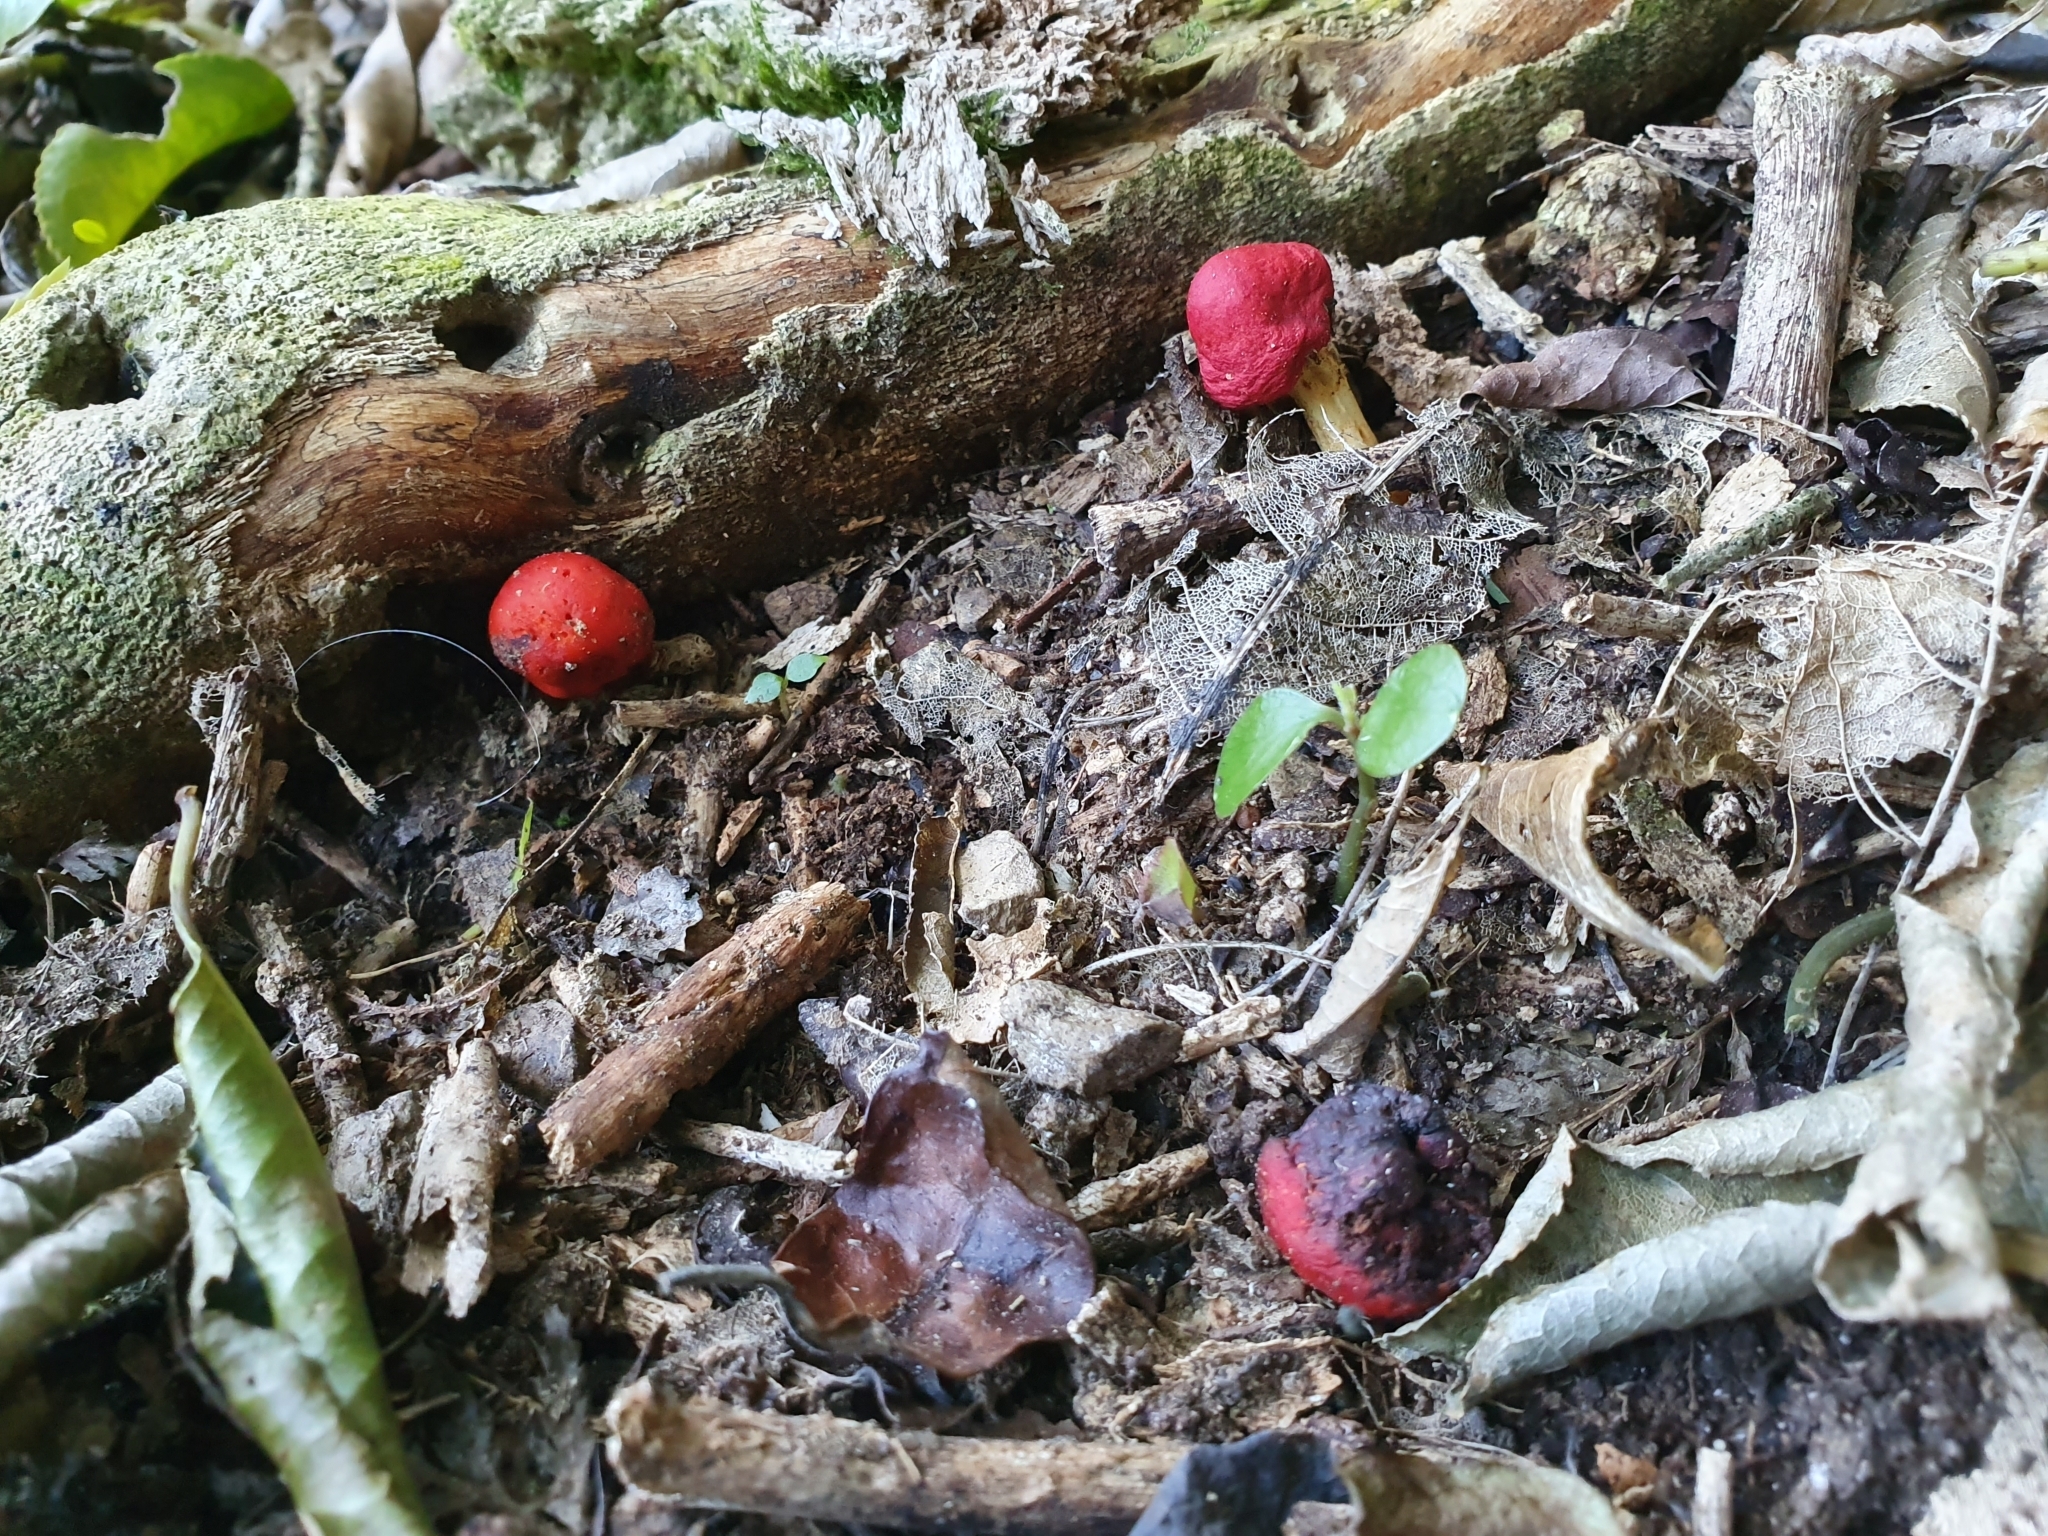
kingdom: Fungi
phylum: Basidiomycota
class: Agaricomycetes
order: Agaricales
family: Strophariaceae
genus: Leratiomyces
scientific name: Leratiomyces erythrocephalus
